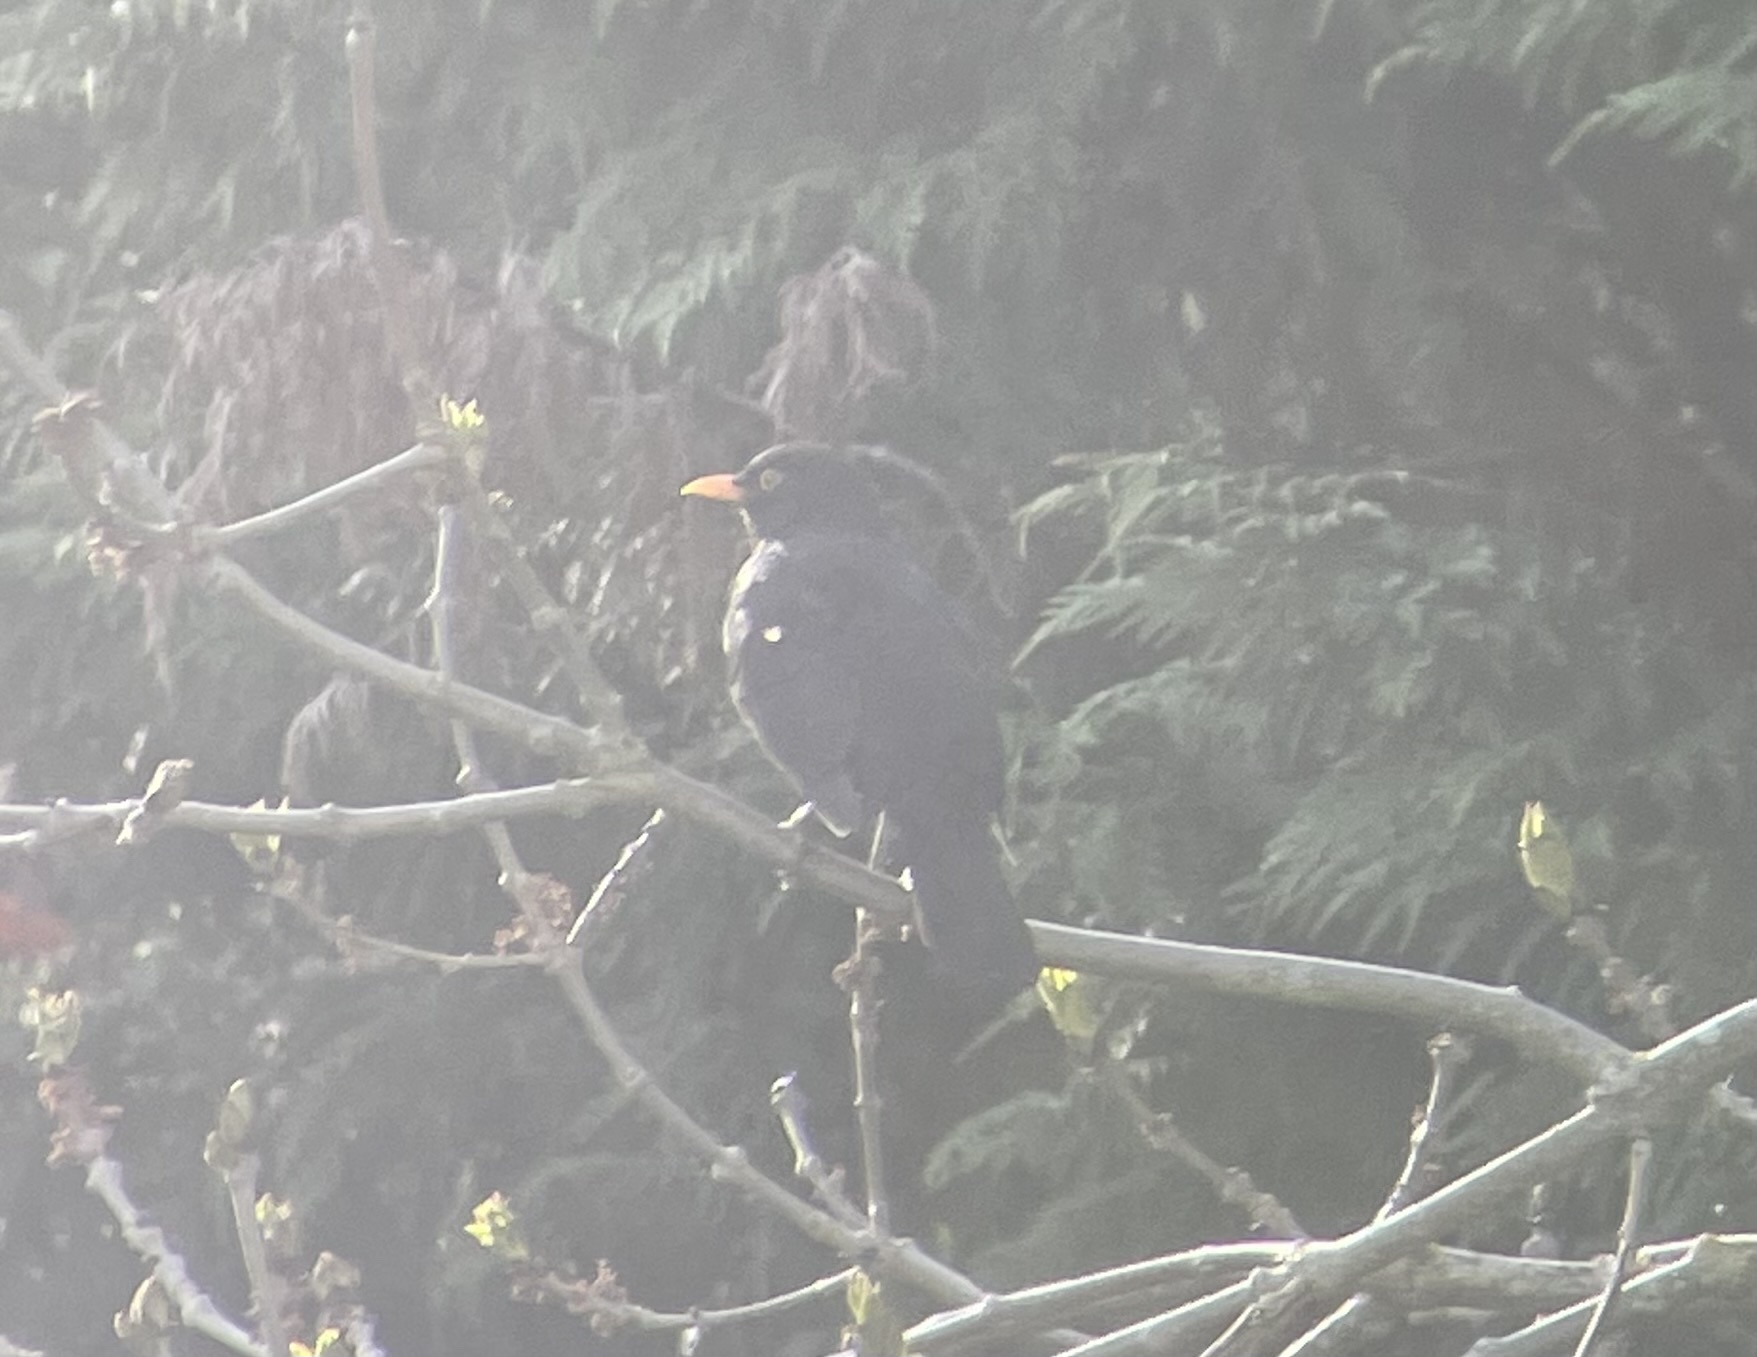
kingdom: Animalia
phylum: Chordata
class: Aves
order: Passeriformes
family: Turdidae
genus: Turdus
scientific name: Turdus merula
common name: Common blackbird
